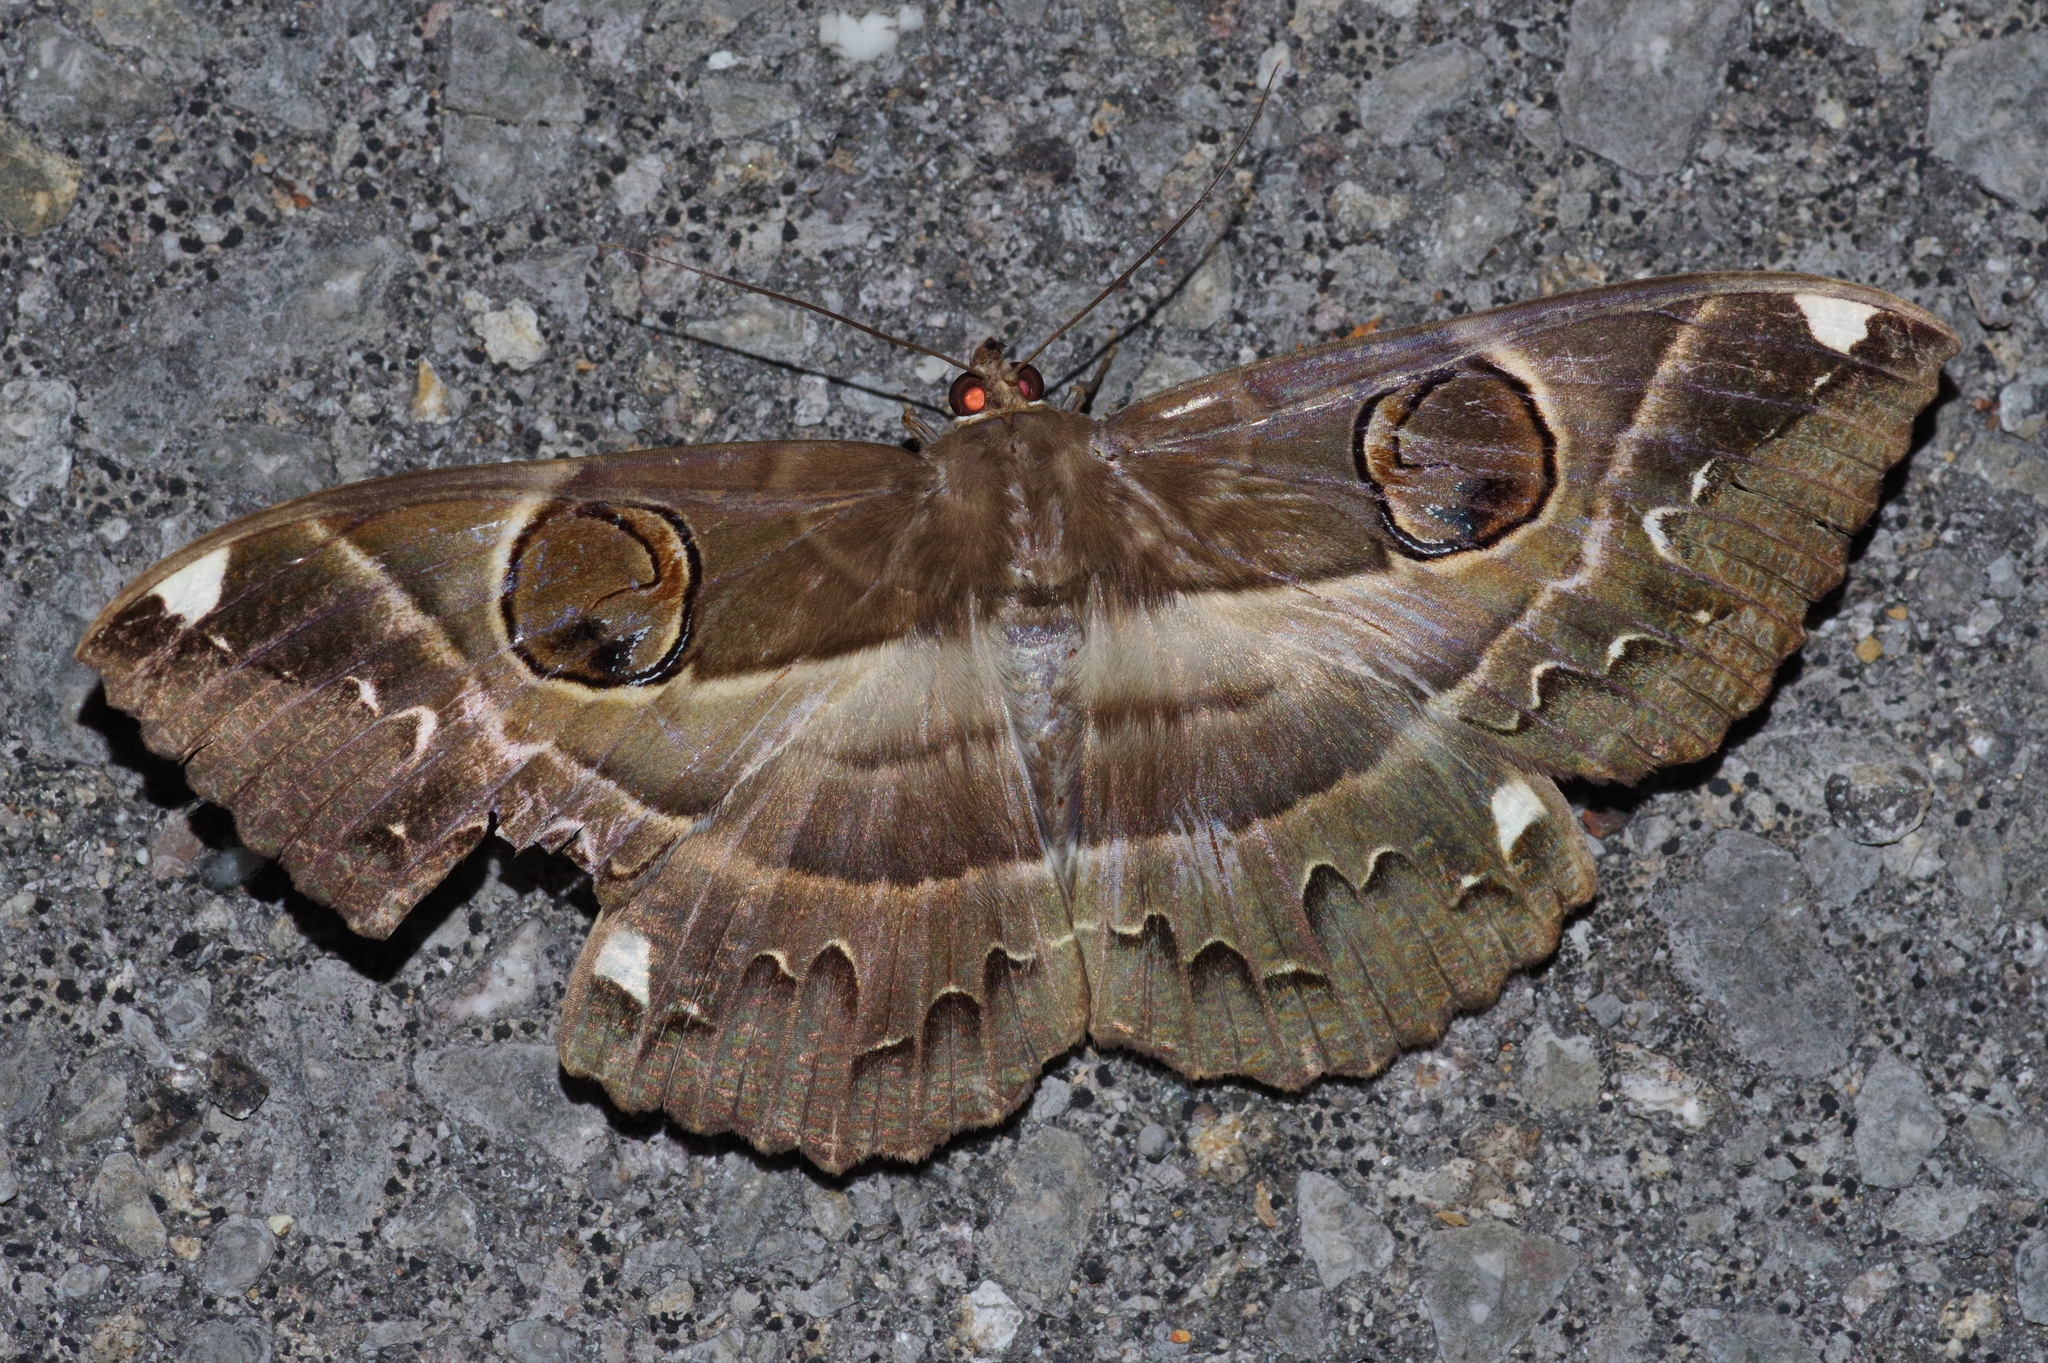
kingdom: Animalia
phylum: Arthropoda
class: Insecta
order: Lepidoptera
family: Erebidae
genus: Erebus
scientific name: Erebus ephesperis
